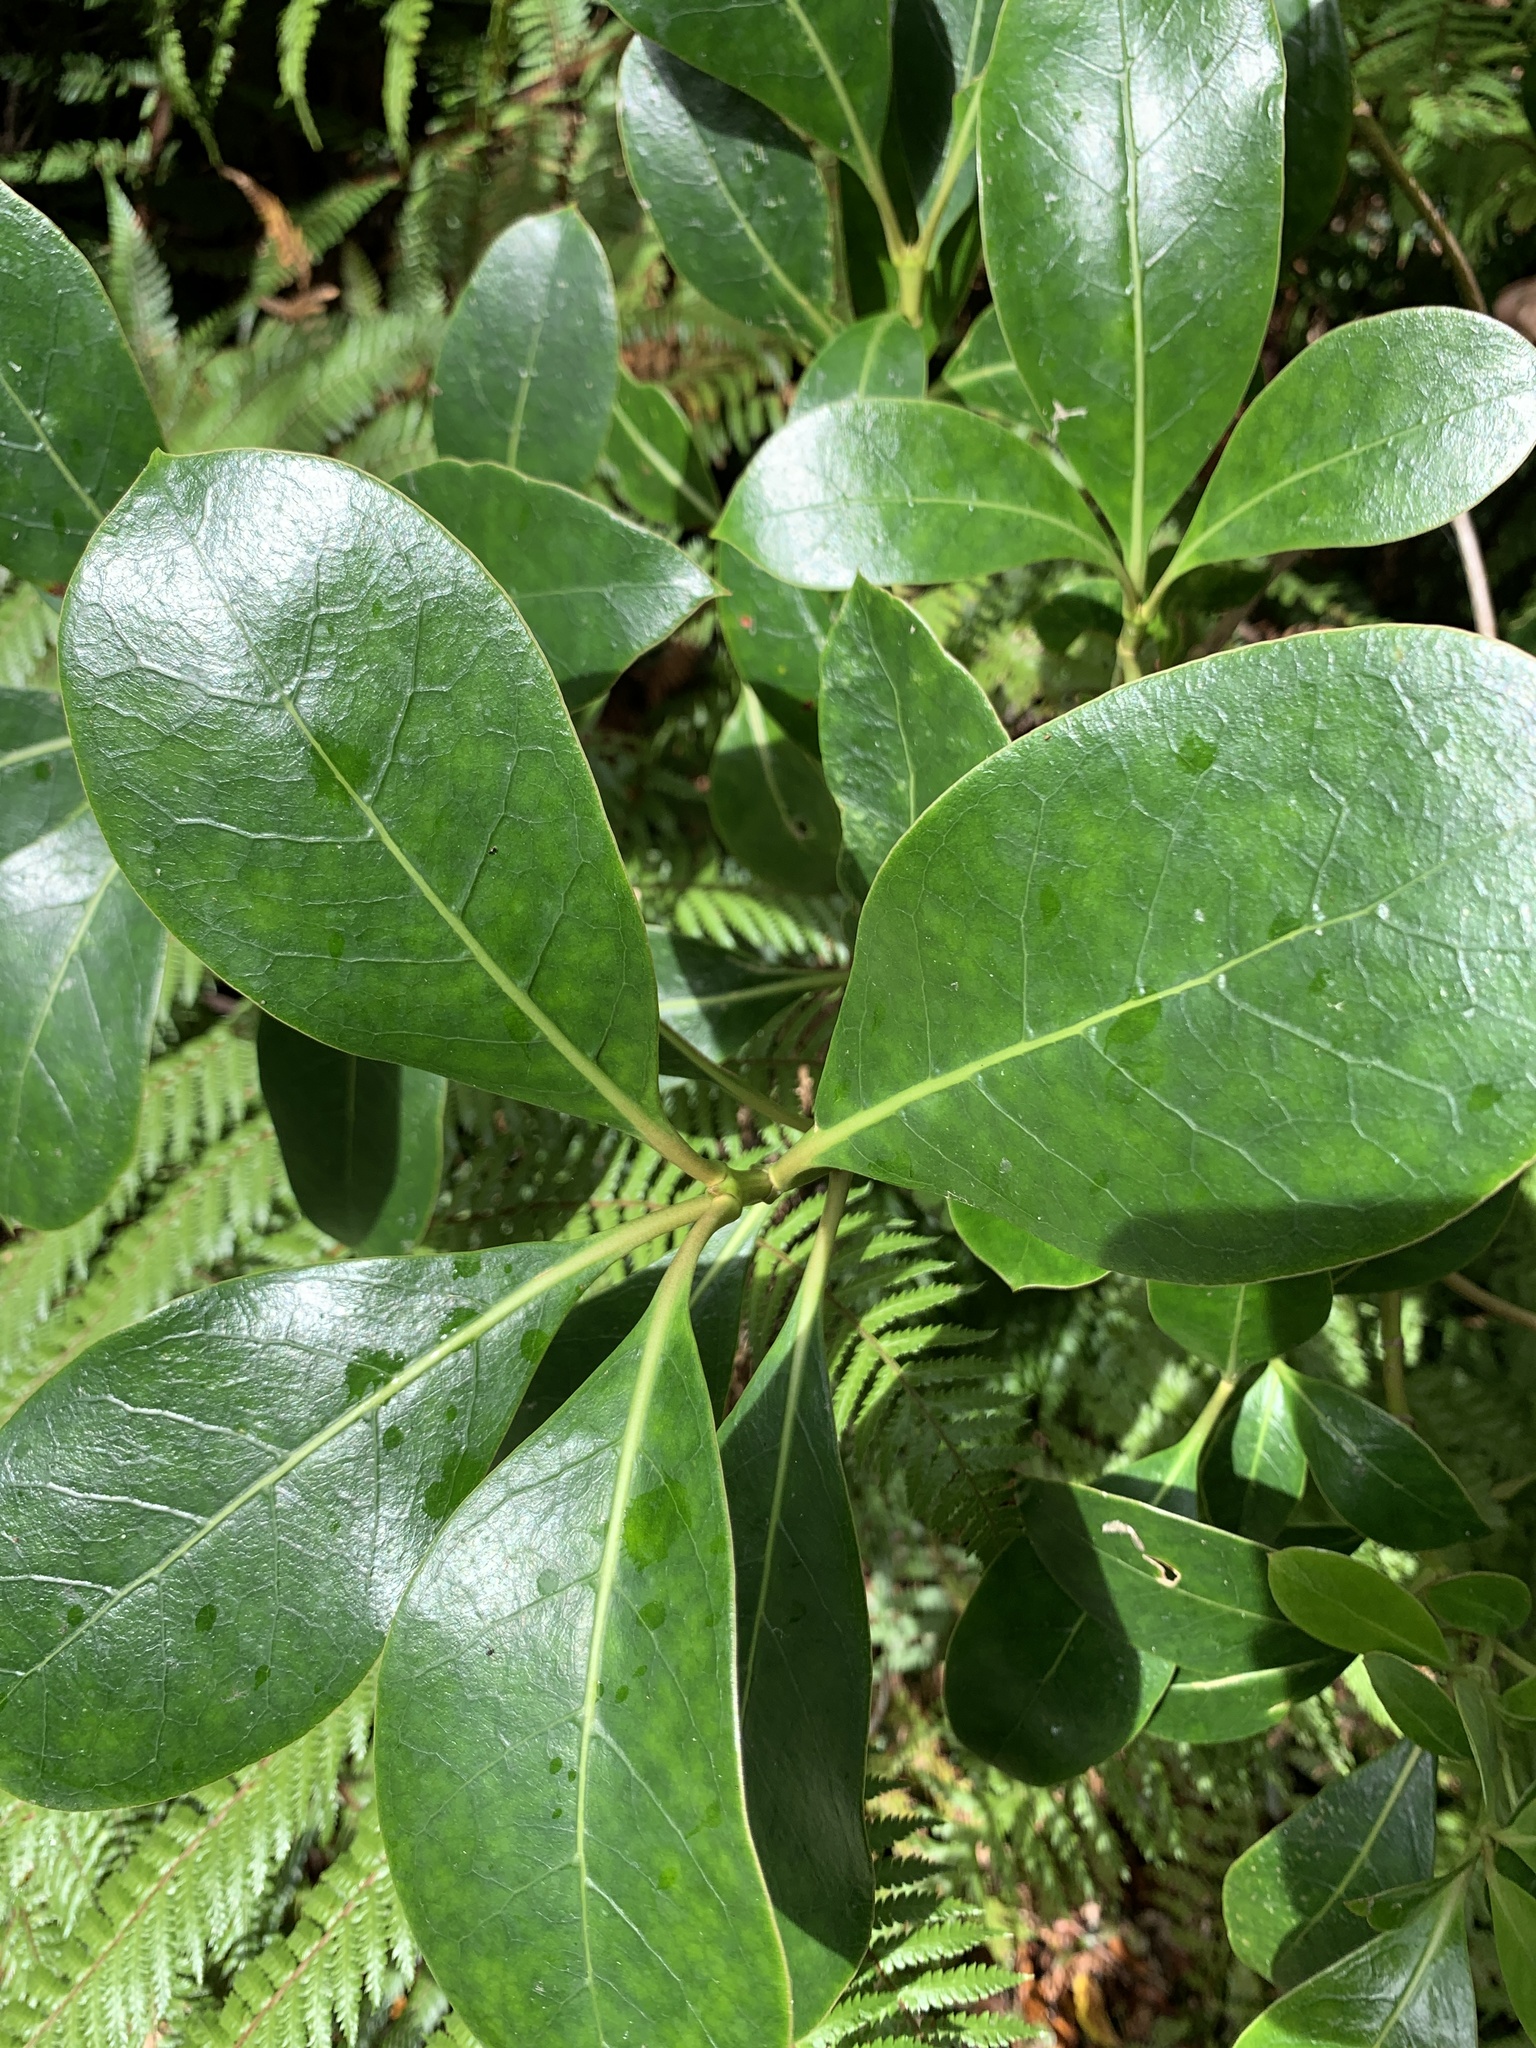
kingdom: Plantae
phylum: Tracheophyta
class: Magnoliopsida
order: Gentianales
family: Rubiaceae
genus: Coprosma
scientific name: Coprosma lucida
